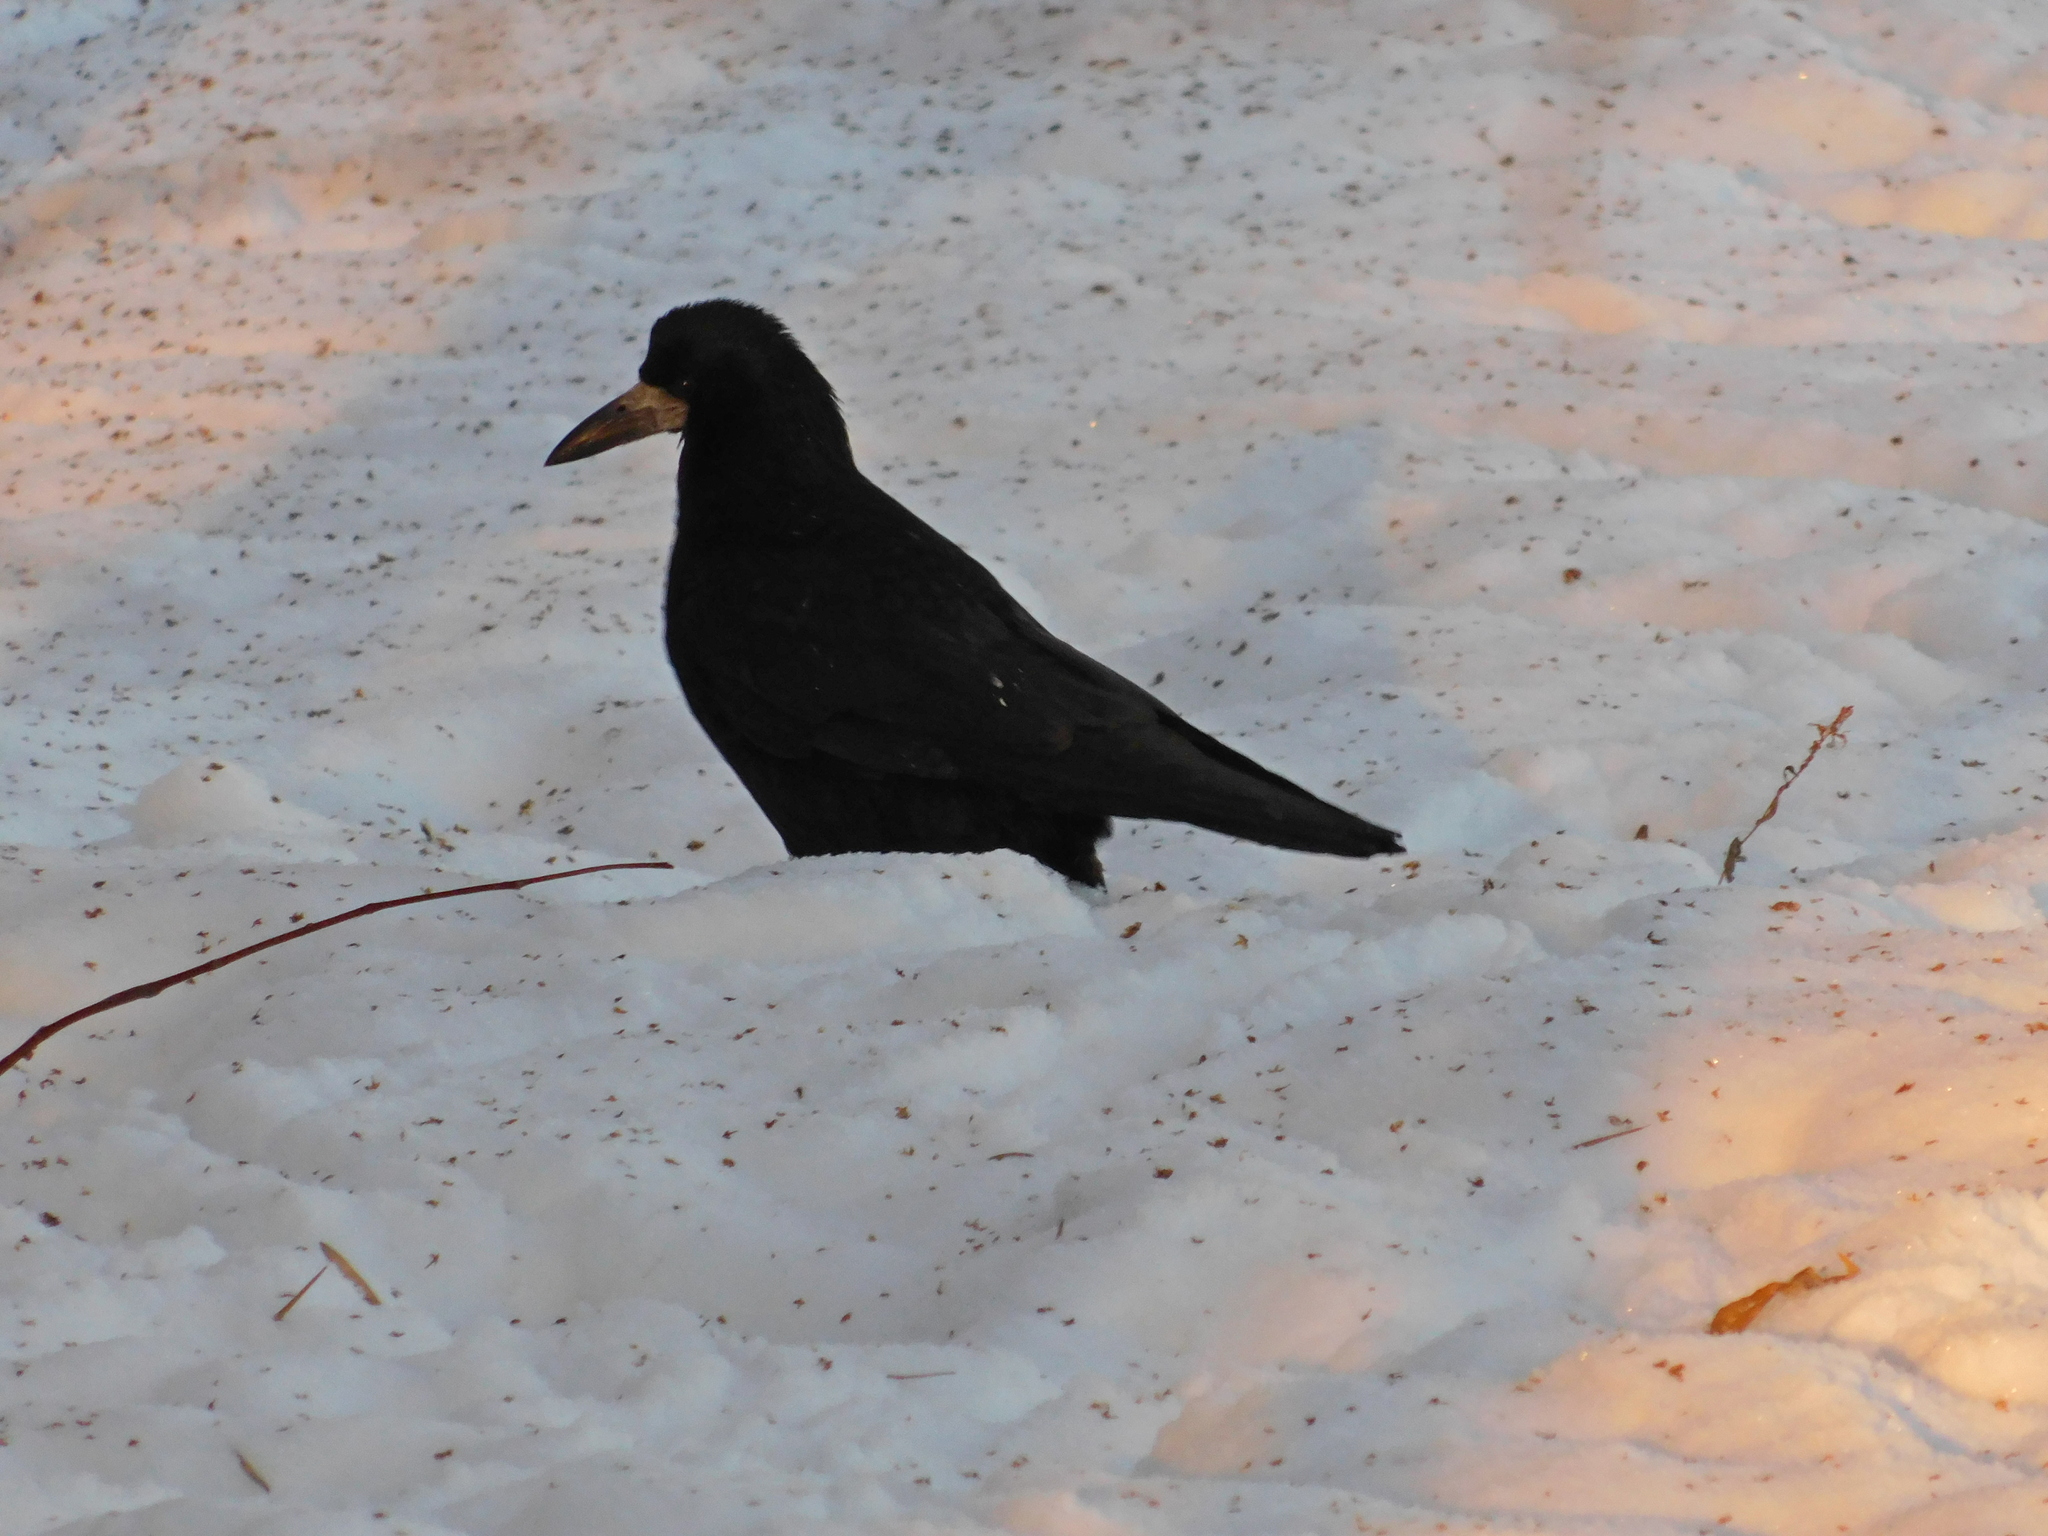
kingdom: Animalia
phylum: Chordata
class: Aves
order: Passeriformes
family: Corvidae
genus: Corvus
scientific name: Corvus frugilegus
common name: Rook
